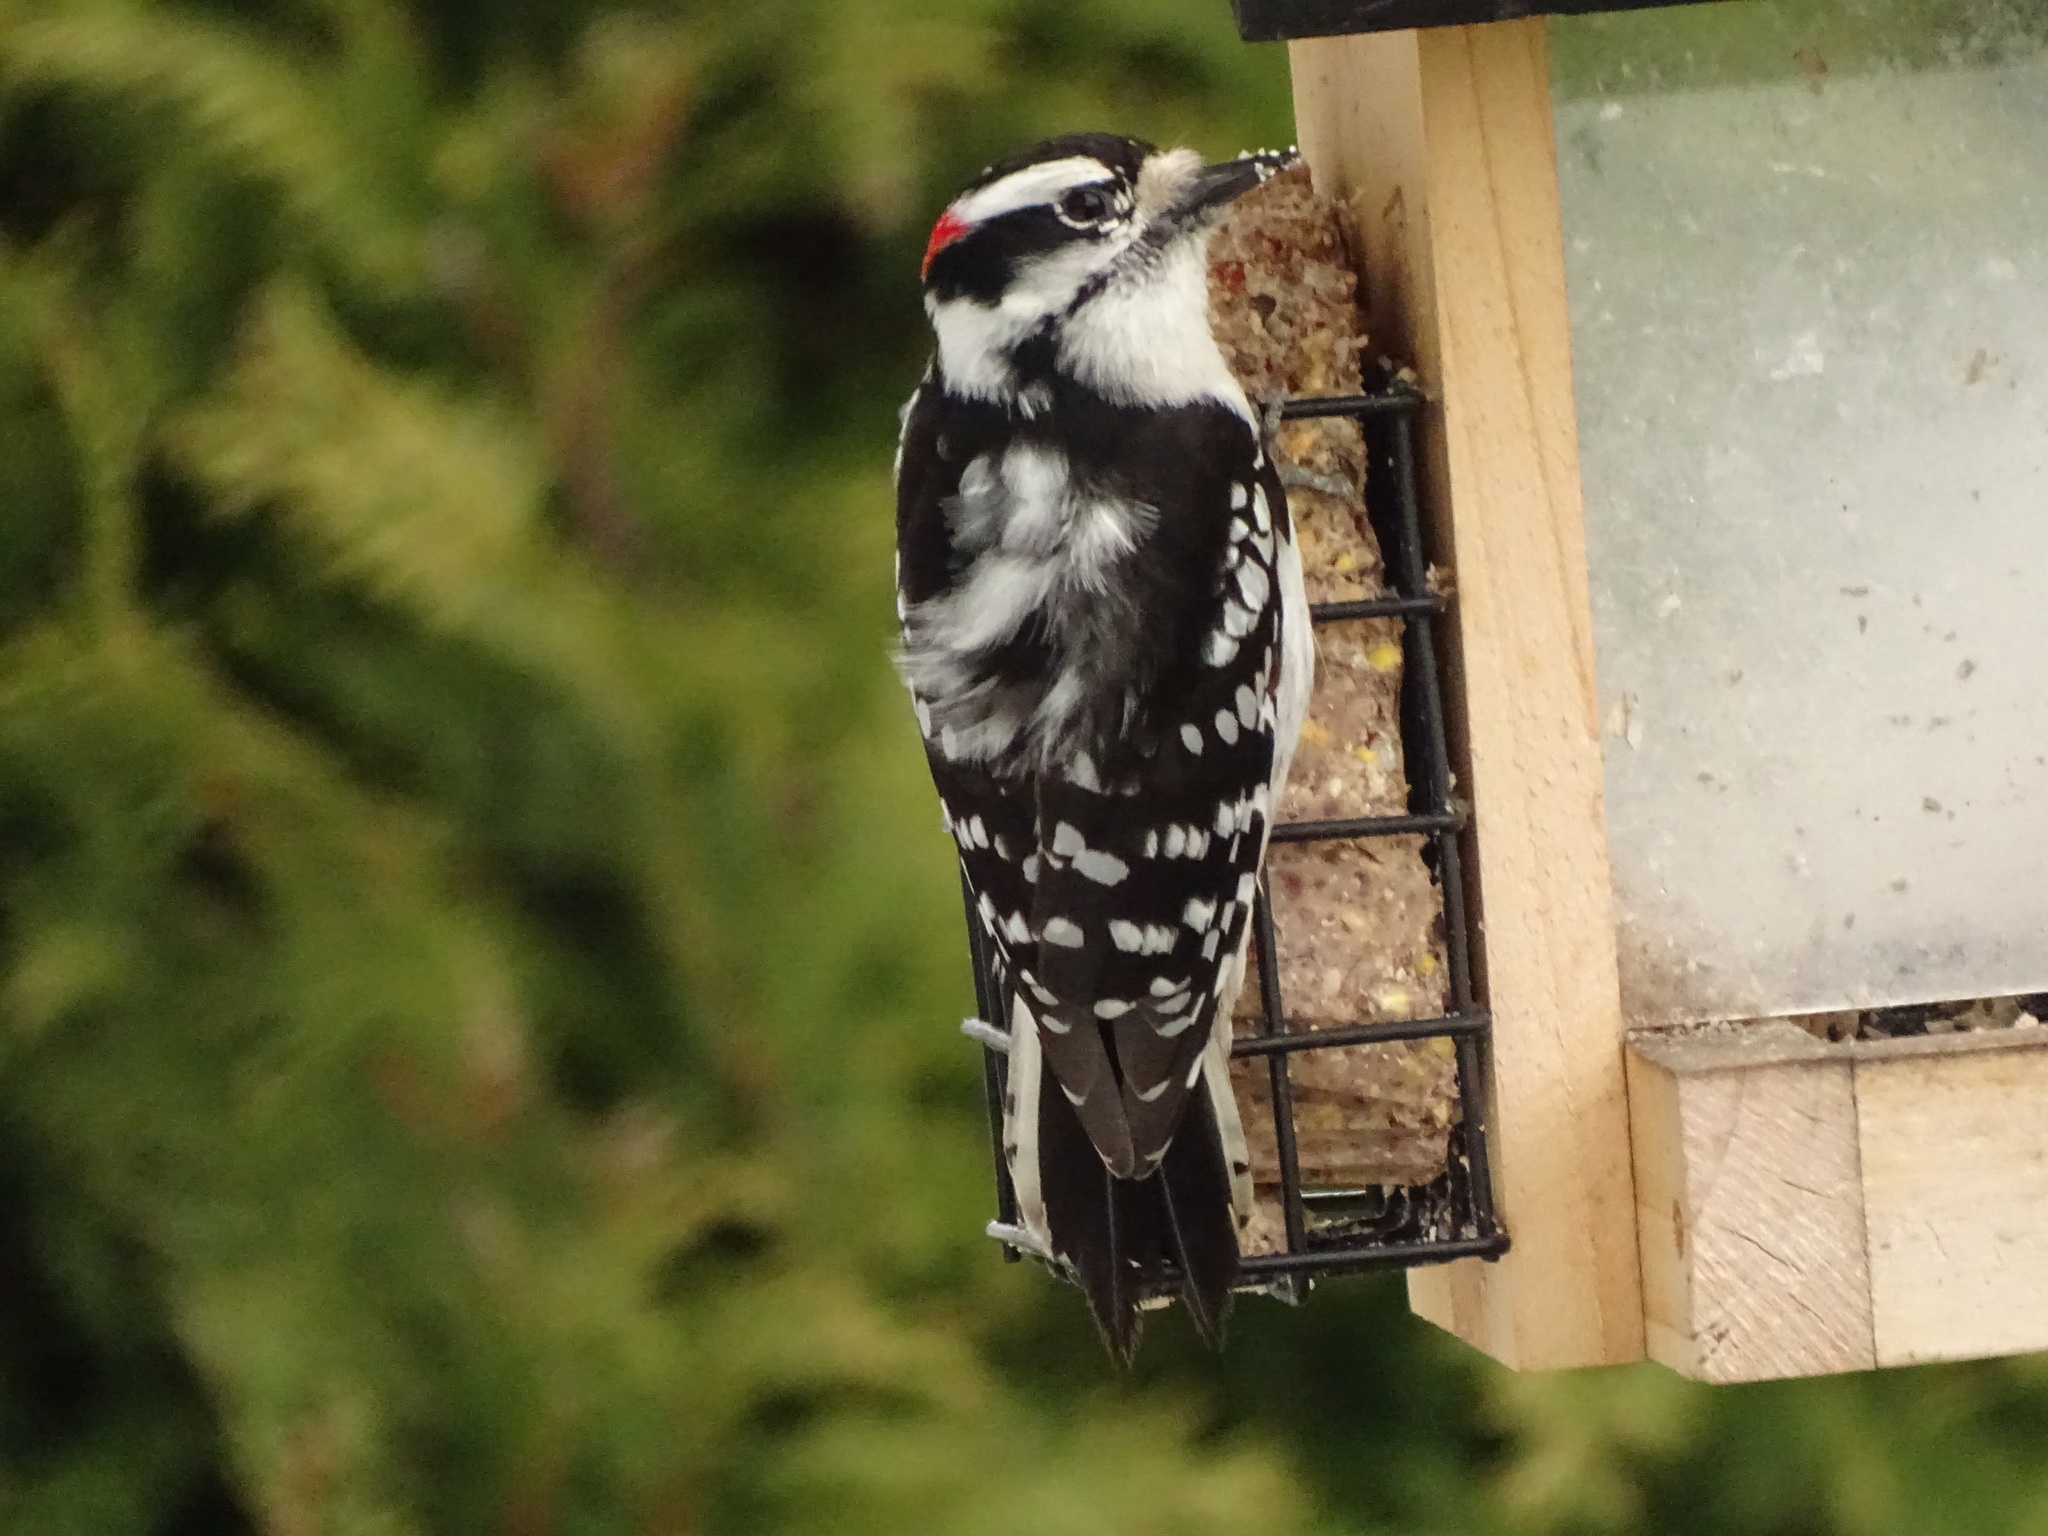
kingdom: Animalia
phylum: Chordata
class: Aves
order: Piciformes
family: Picidae
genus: Dryobates
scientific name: Dryobates pubescens
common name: Downy woodpecker
